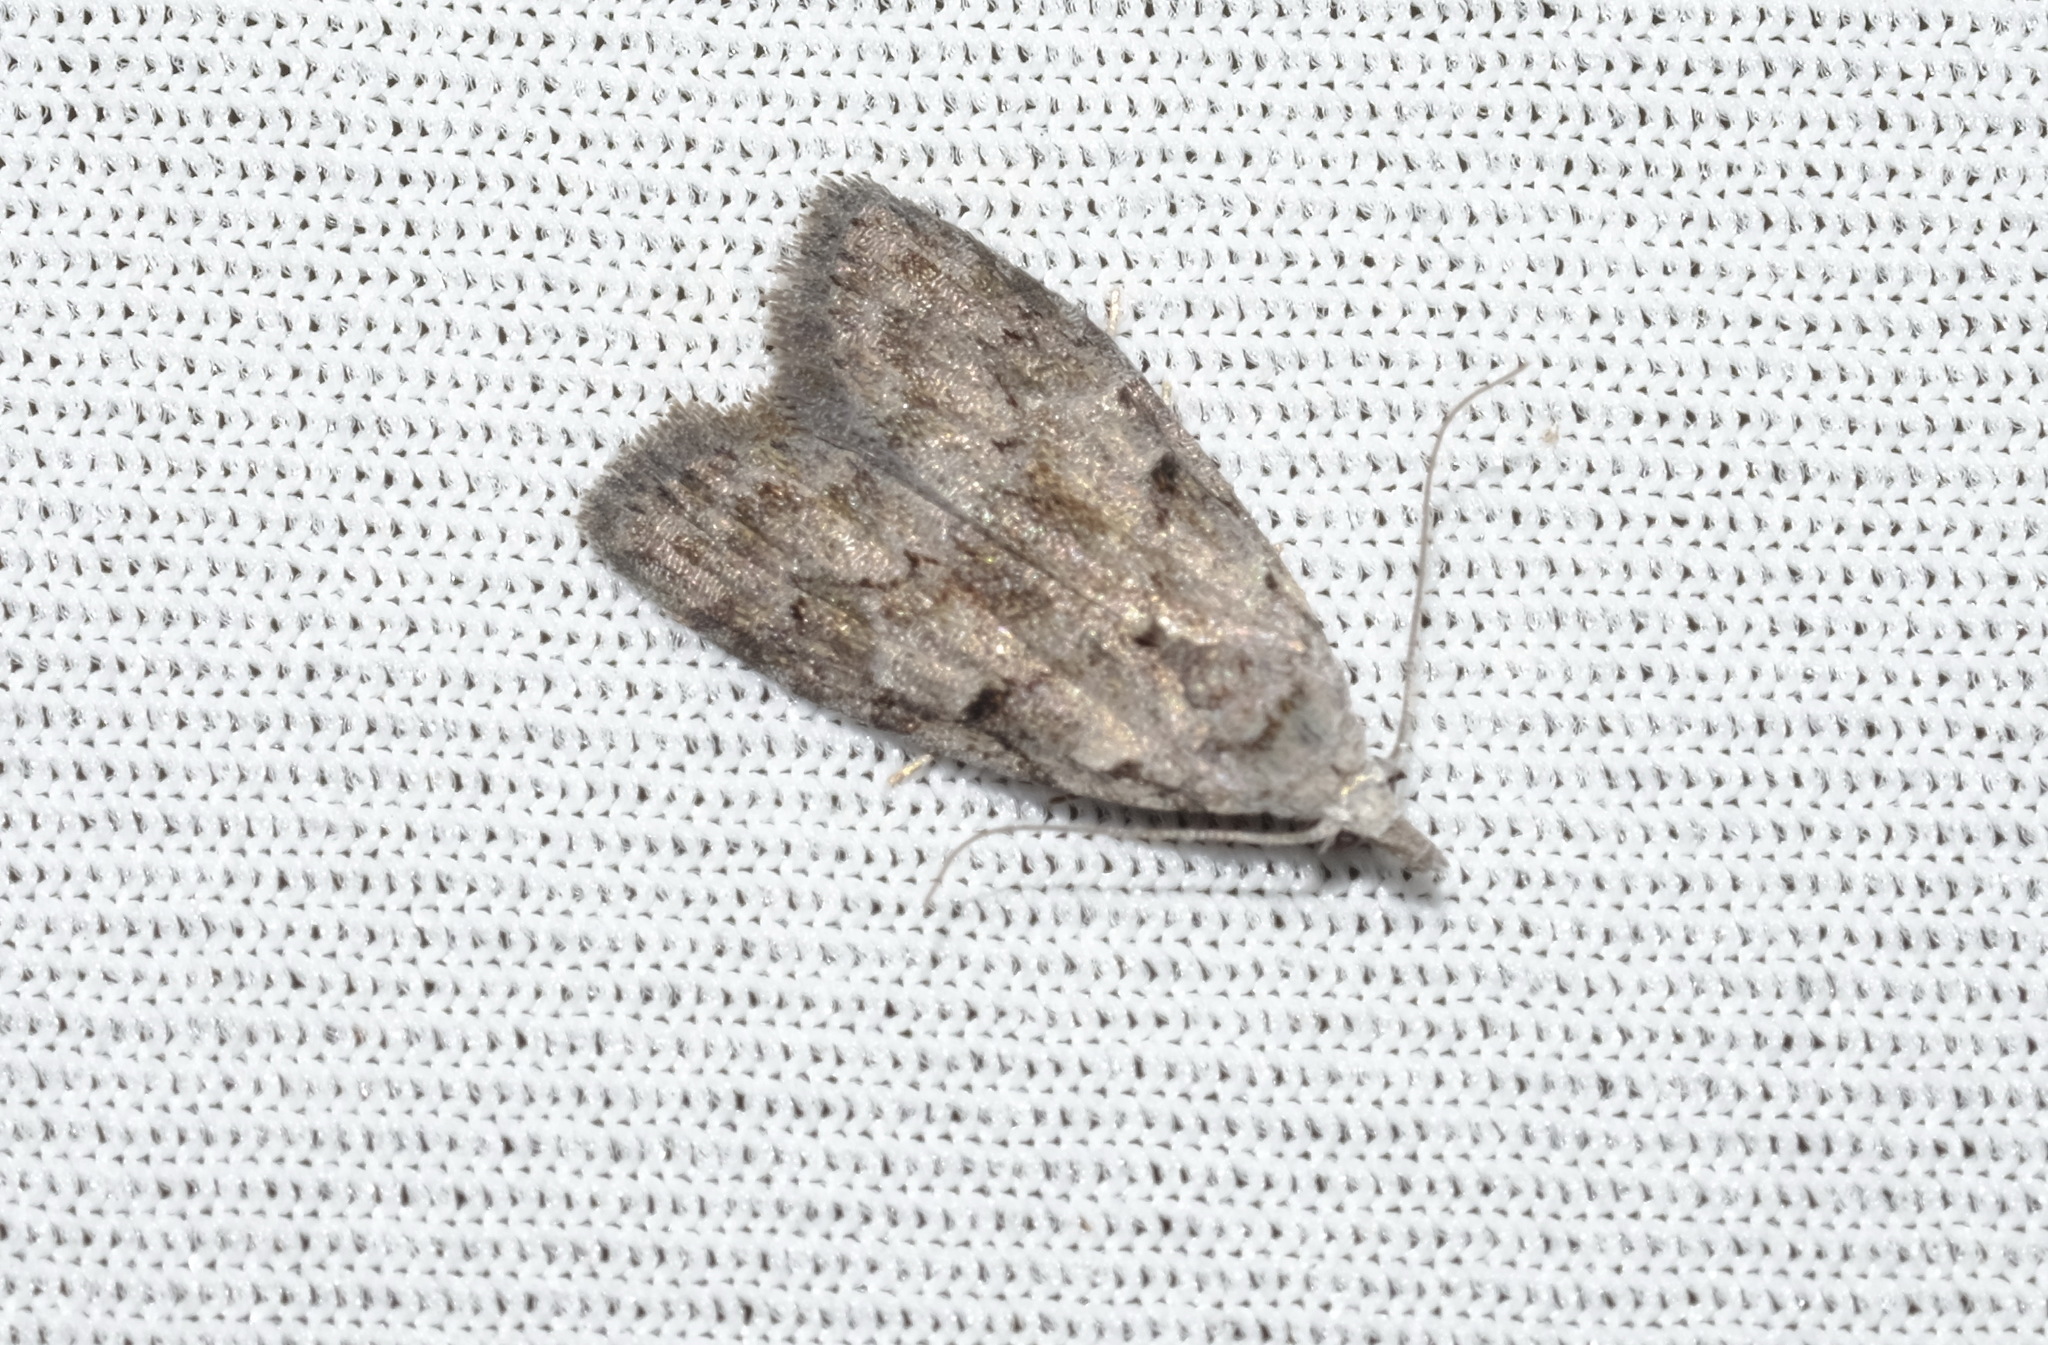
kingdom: Animalia
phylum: Arthropoda
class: Insecta
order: Lepidoptera
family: Nolidae
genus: Nola
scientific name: Nola cycota
